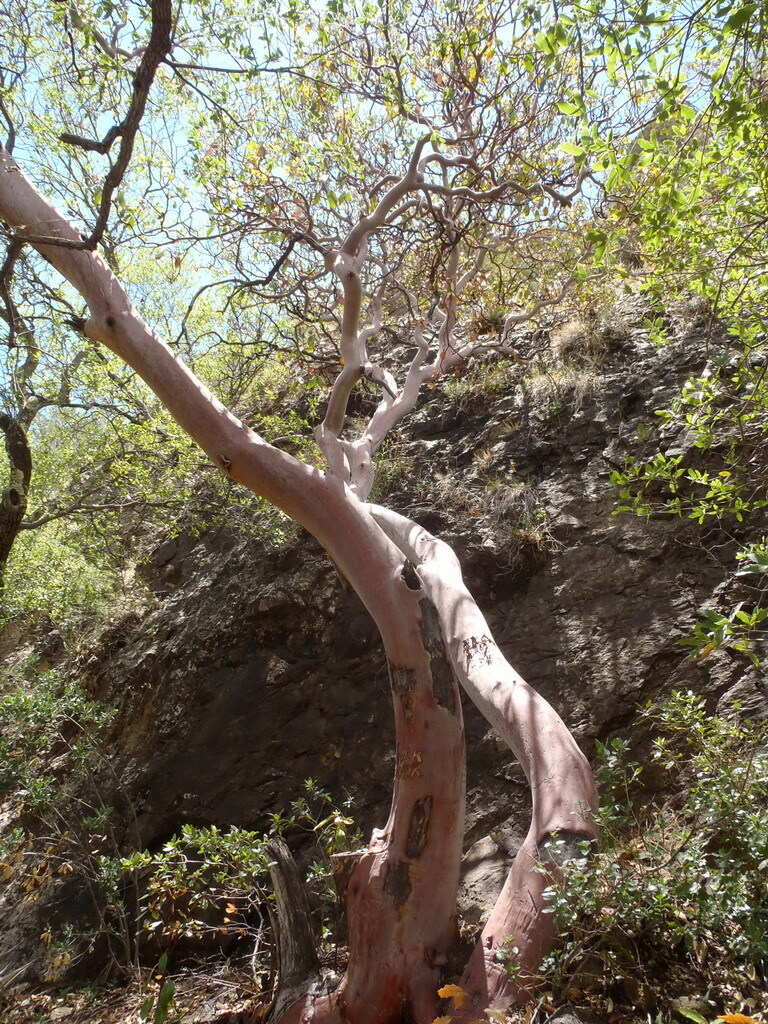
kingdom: Plantae
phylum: Tracheophyta
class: Magnoliopsida
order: Ericales
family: Ericaceae
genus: Arbutus
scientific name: Arbutus xalapensis
